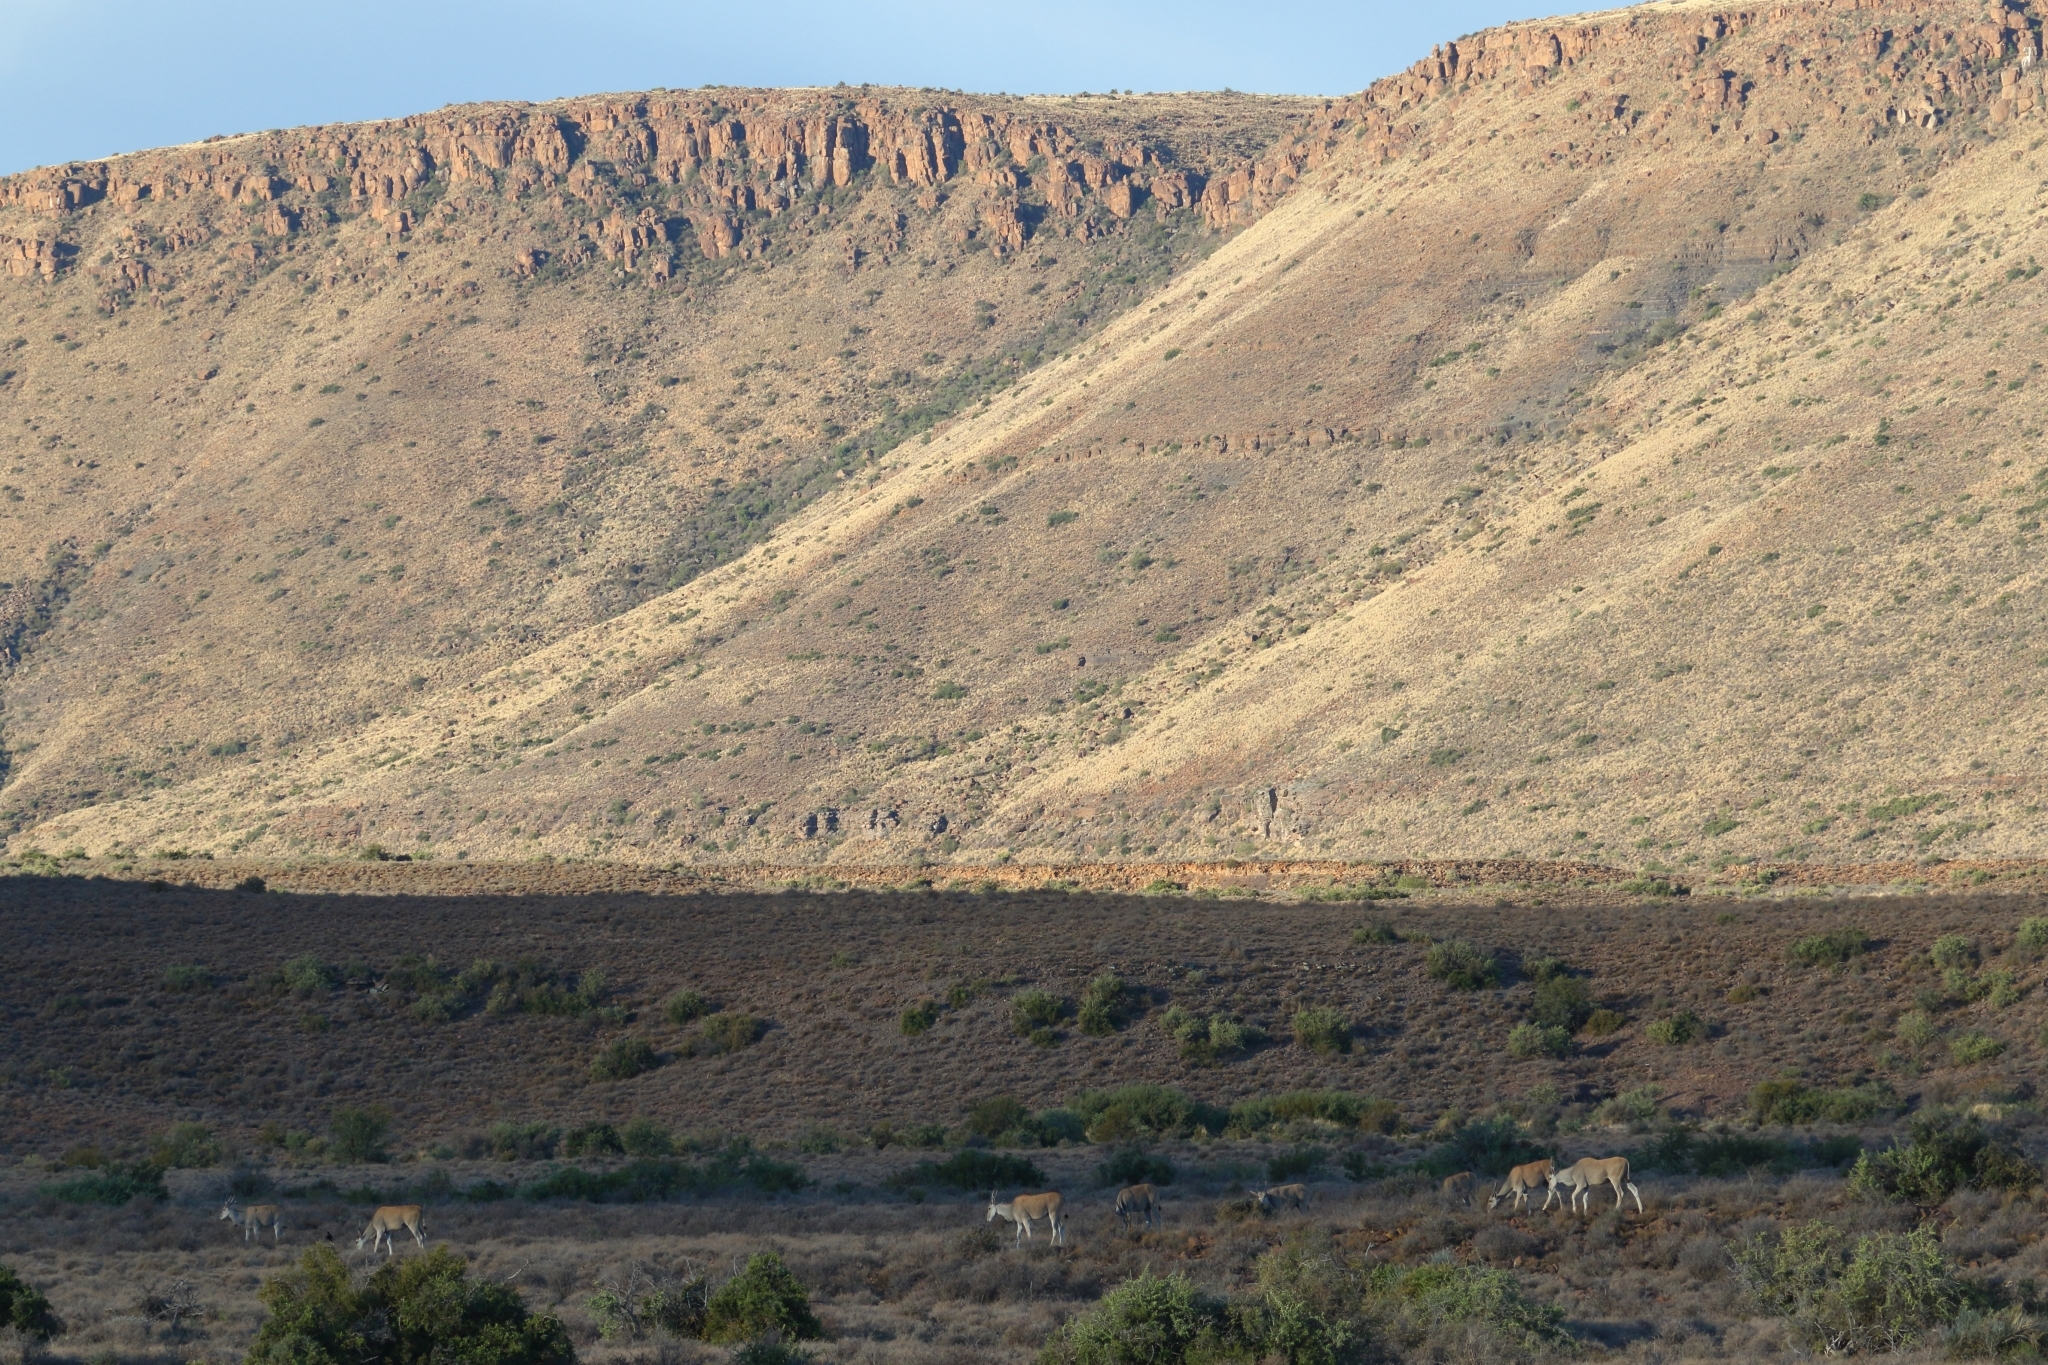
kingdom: Animalia
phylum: Chordata
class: Mammalia
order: Artiodactyla
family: Bovidae
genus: Taurotragus
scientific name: Taurotragus oryx
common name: Common eland
